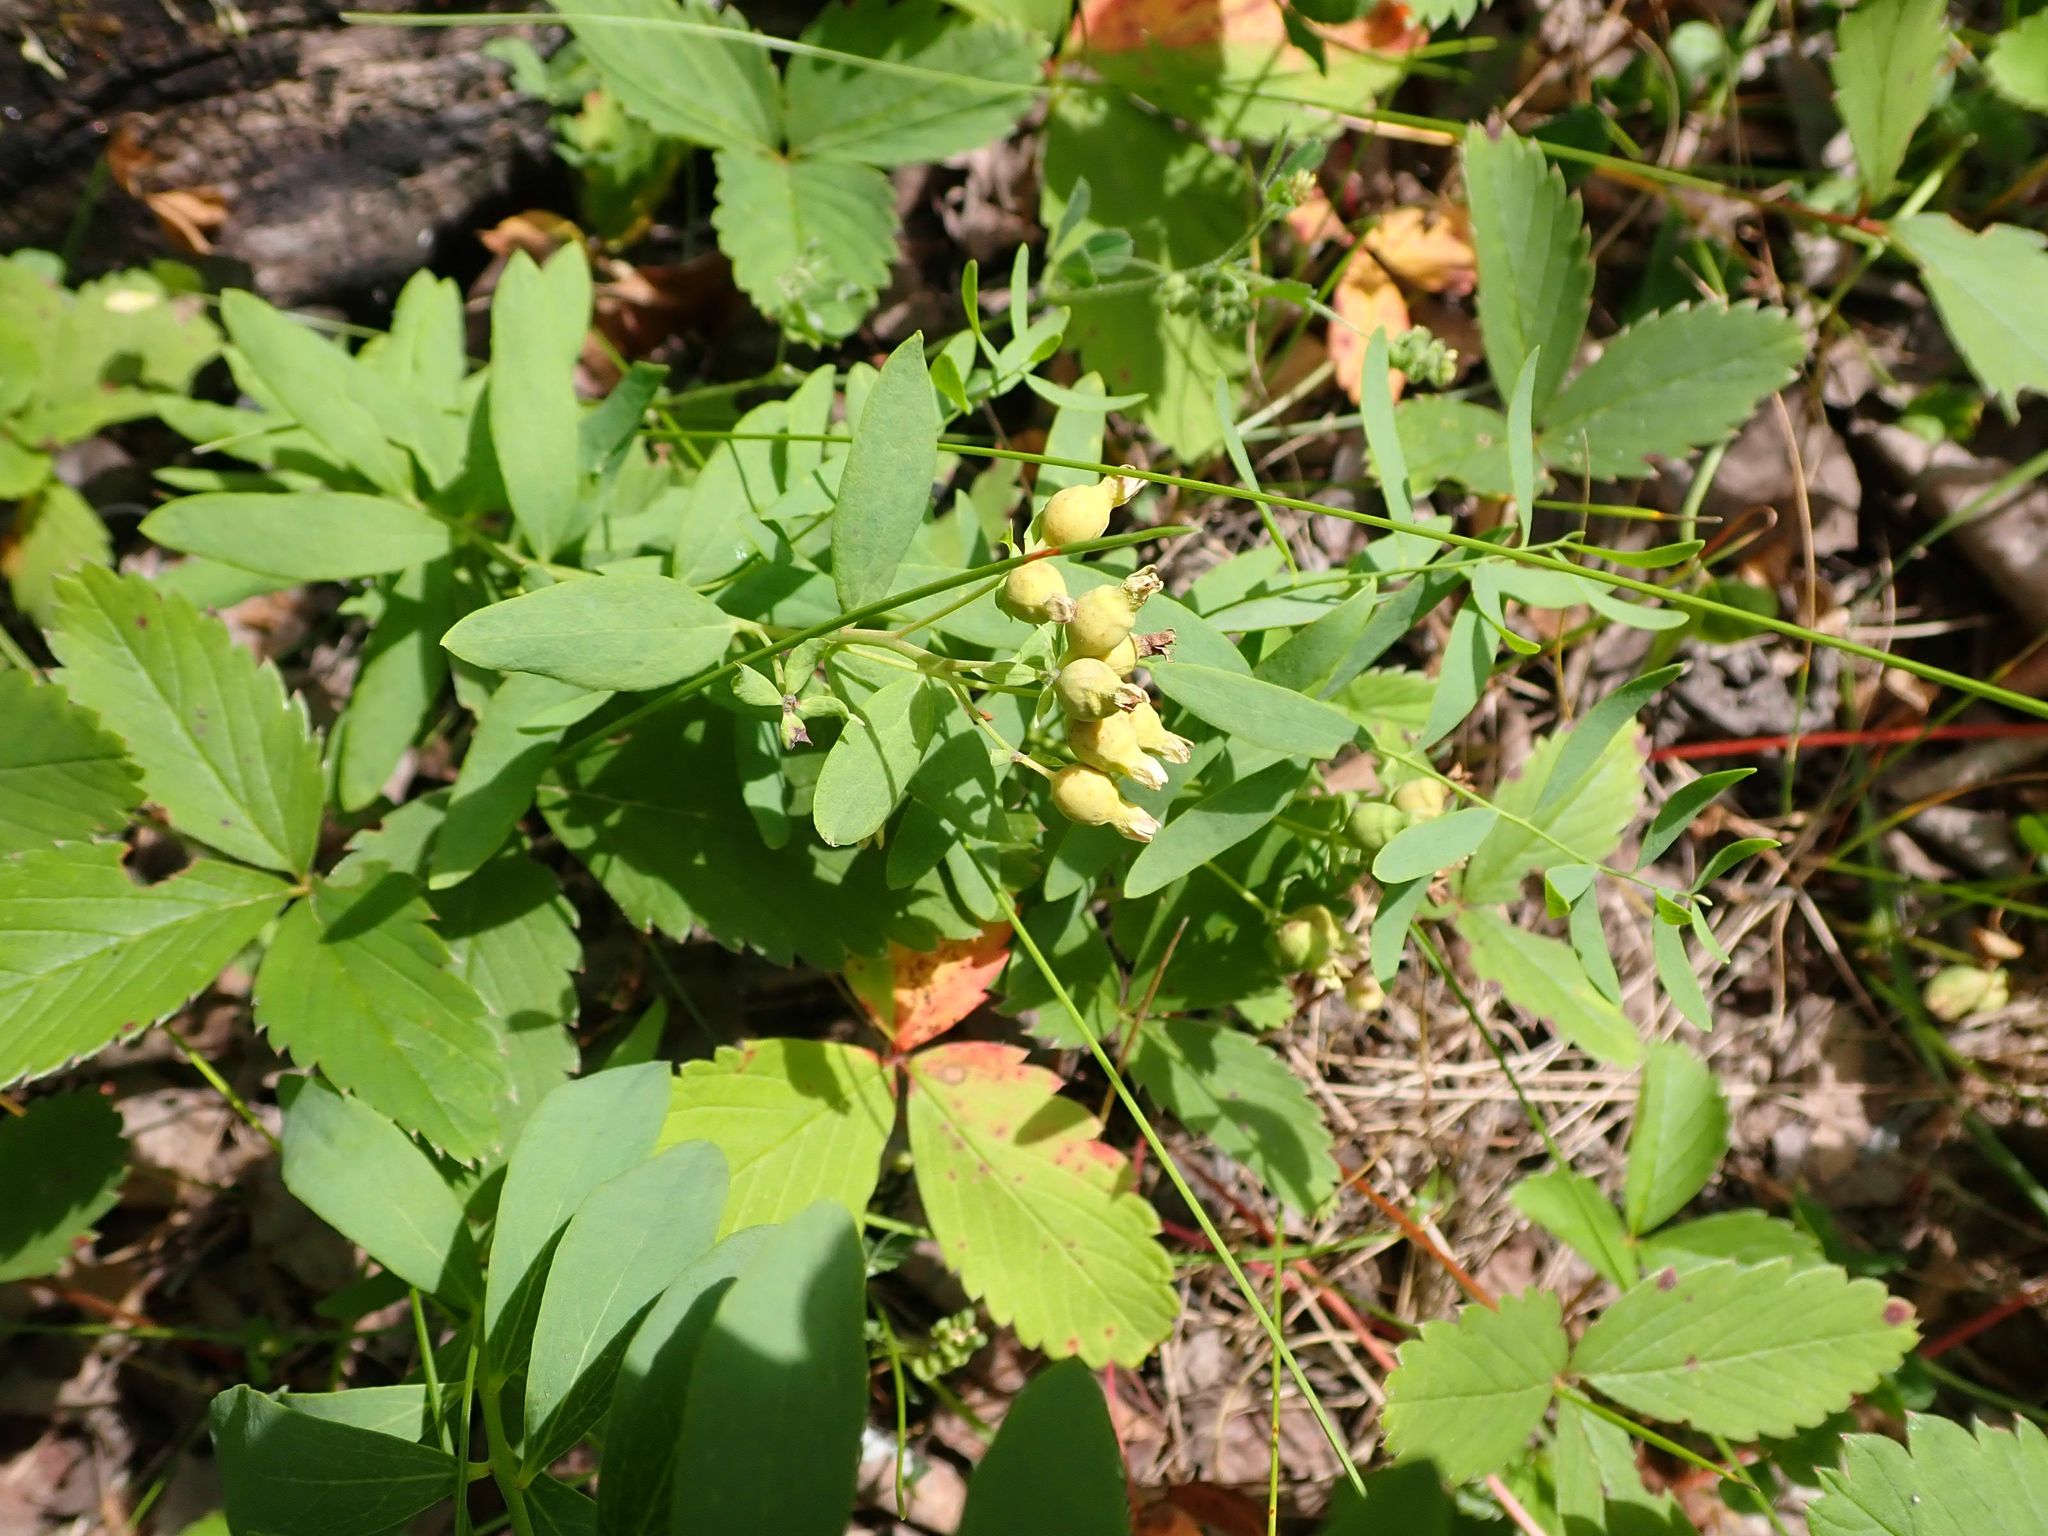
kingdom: Plantae
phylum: Tracheophyta
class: Magnoliopsida
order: Santalales
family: Comandraceae
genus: Comandra
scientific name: Comandra umbellata
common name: Bastard toadflax
